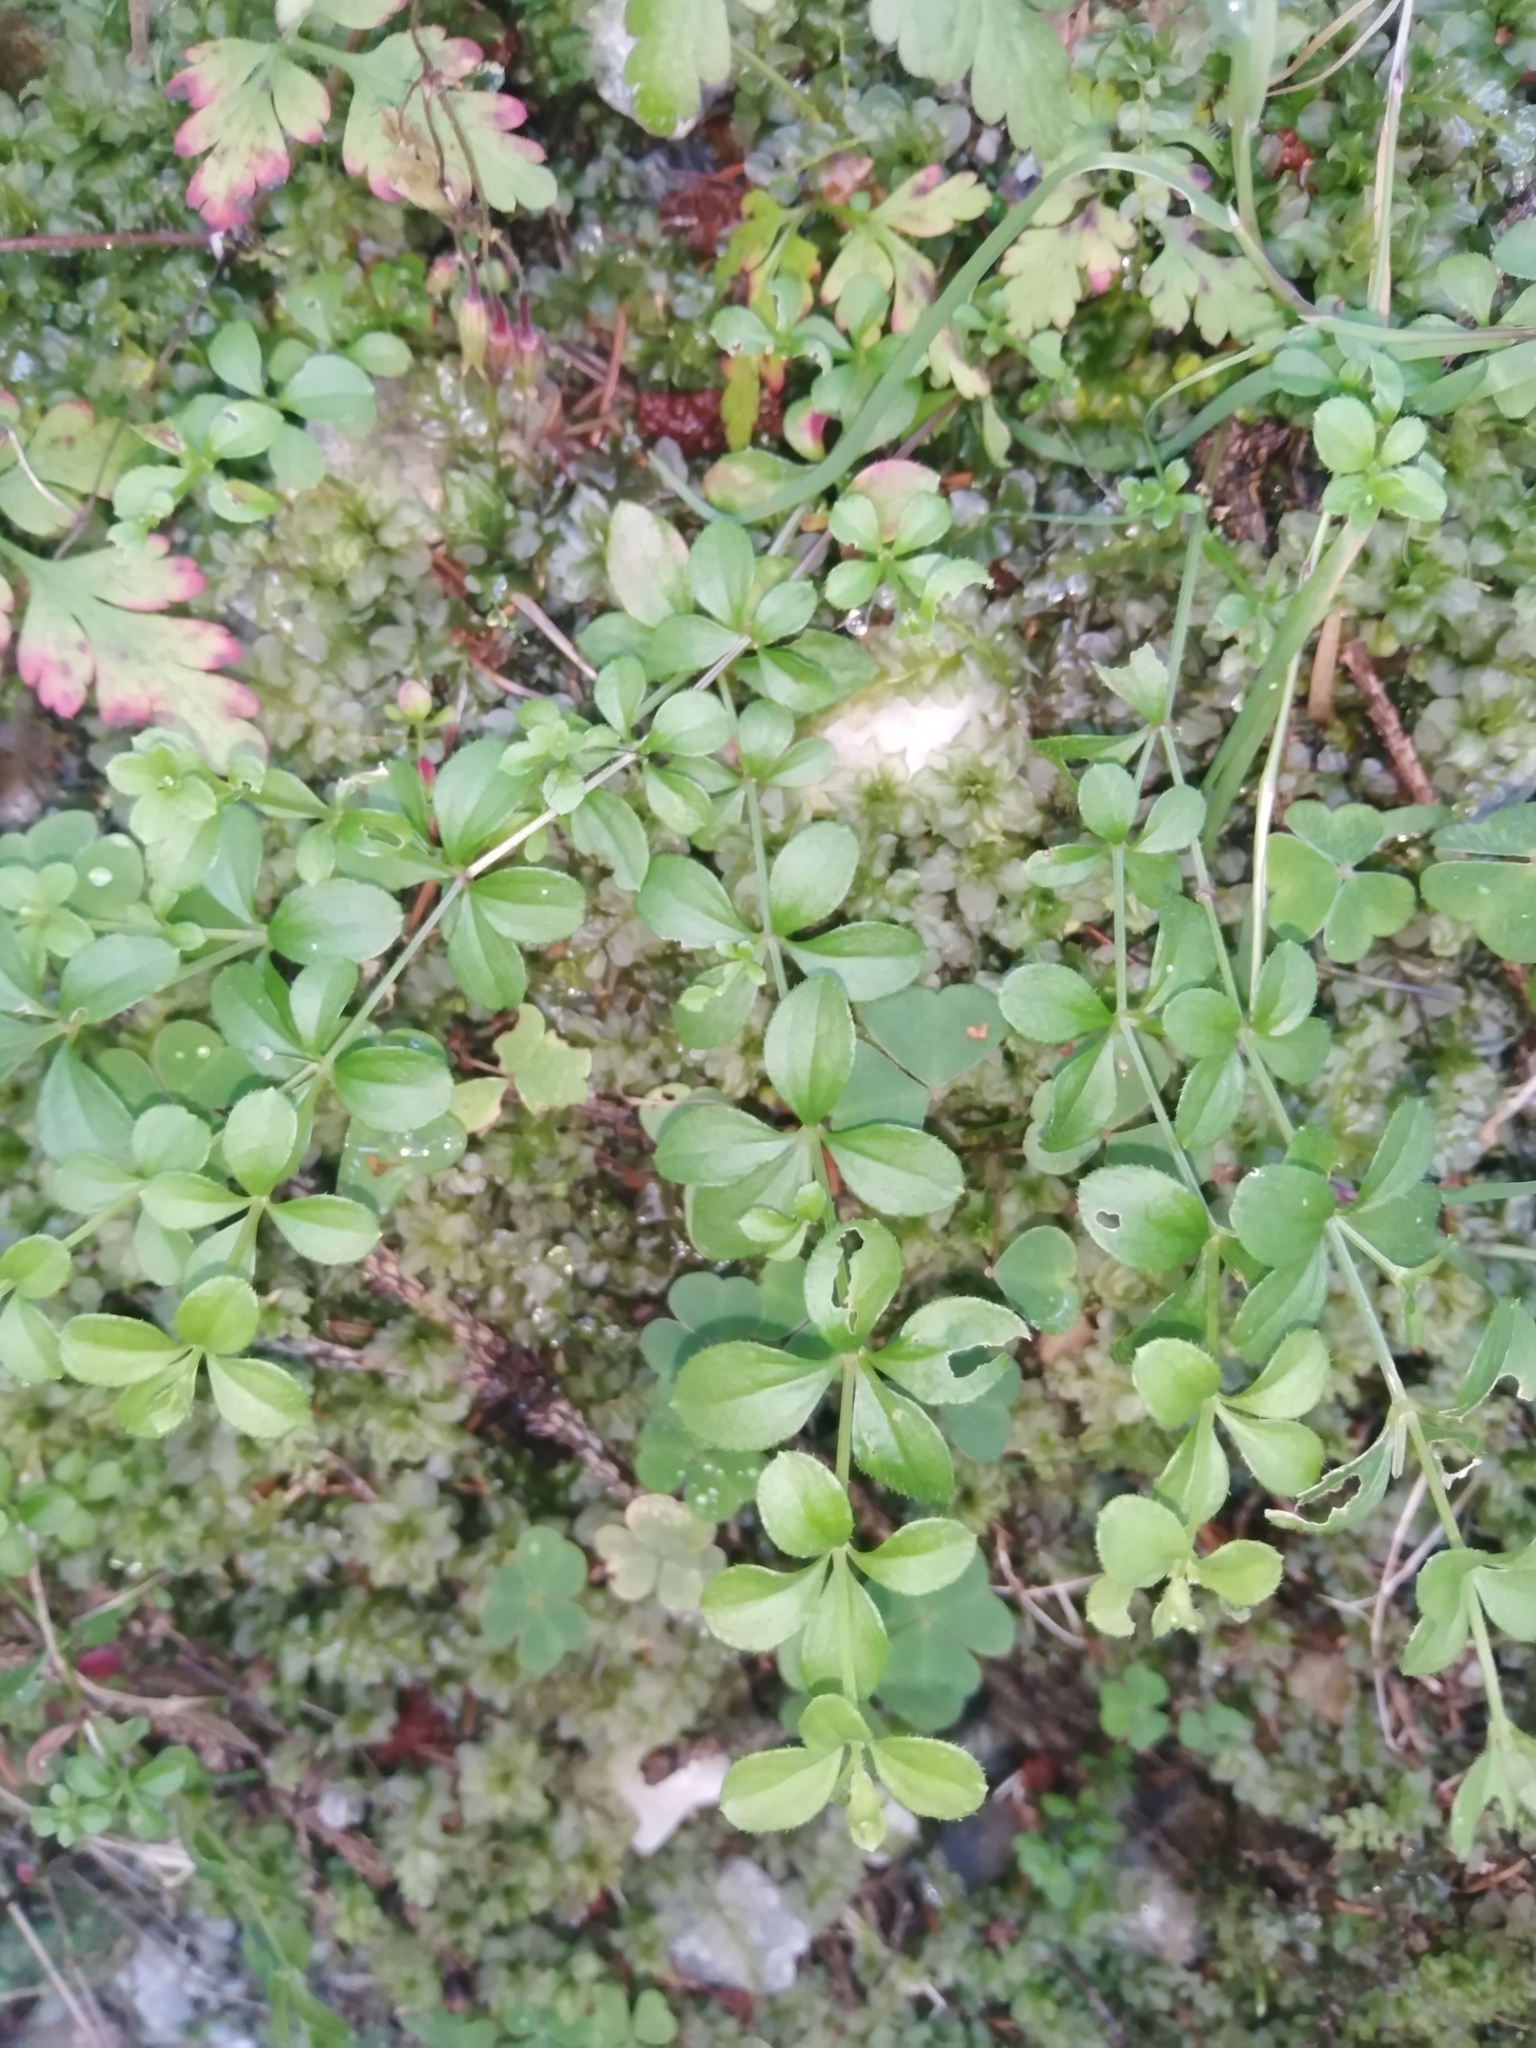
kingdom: Plantae
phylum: Tracheophyta
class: Magnoliopsida
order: Gentianales
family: Rubiaceae
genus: Galium
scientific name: Galium rotundifolium
